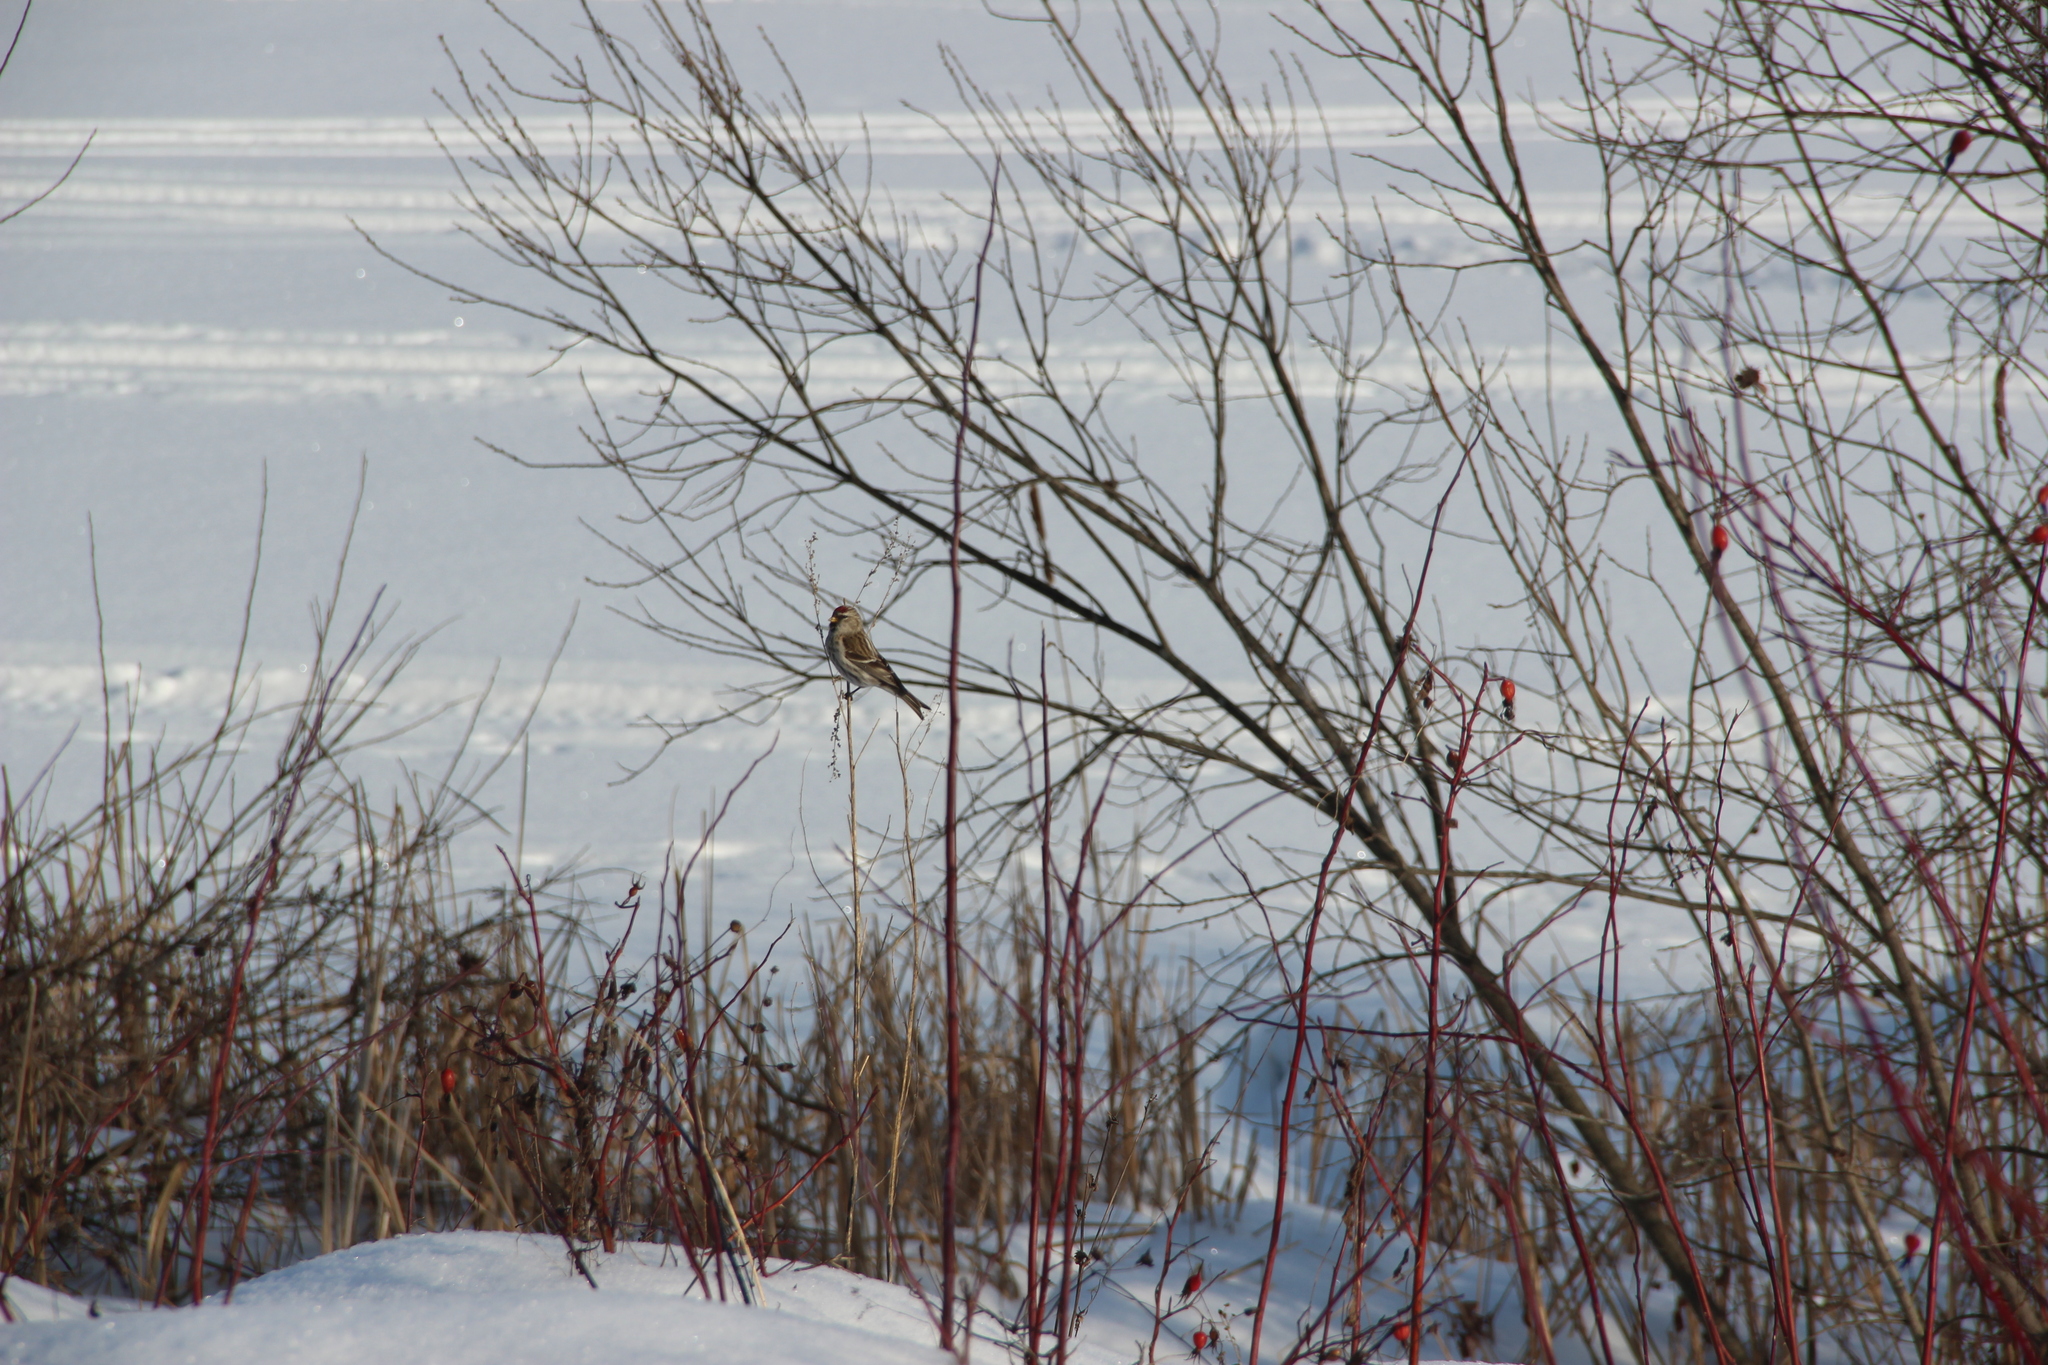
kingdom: Animalia
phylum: Chordata
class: Aves
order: Passeriformes
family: Fringillidae
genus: Acanthis
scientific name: Acanthis flammea
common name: Common redpoll
